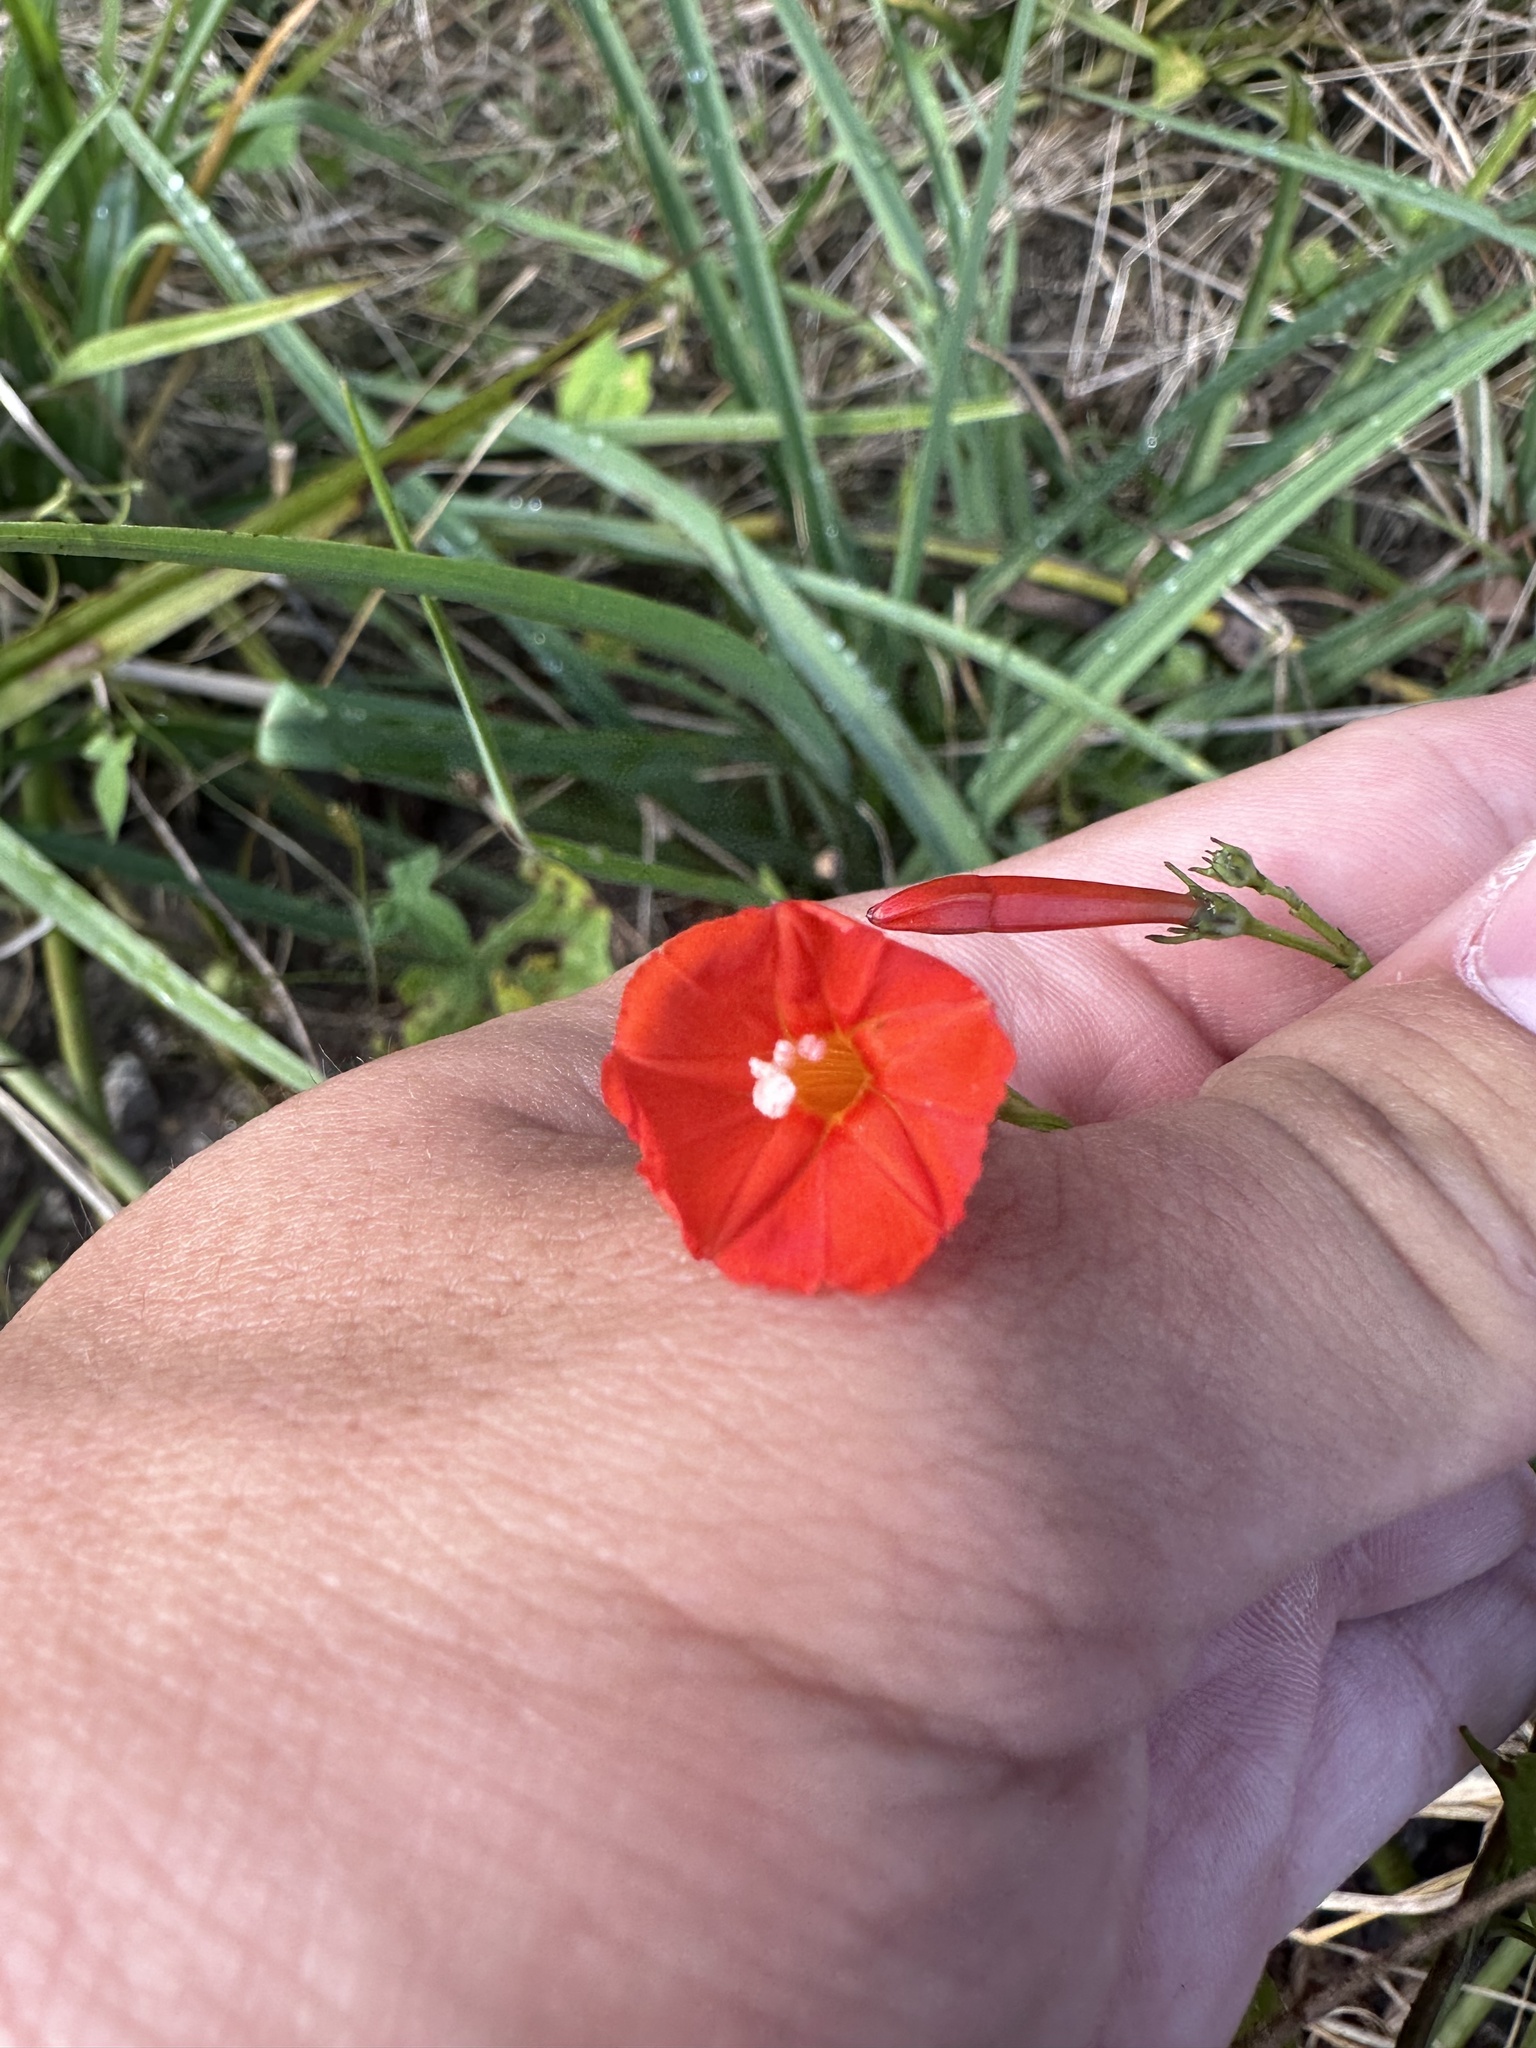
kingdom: Plantae
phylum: Tracheophyta
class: Magnoliopsida
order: Solanales
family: Convolvulaceae
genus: Ipomoea
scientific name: Ipomoea hederifolia
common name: Ivy-leaf morning-glory
